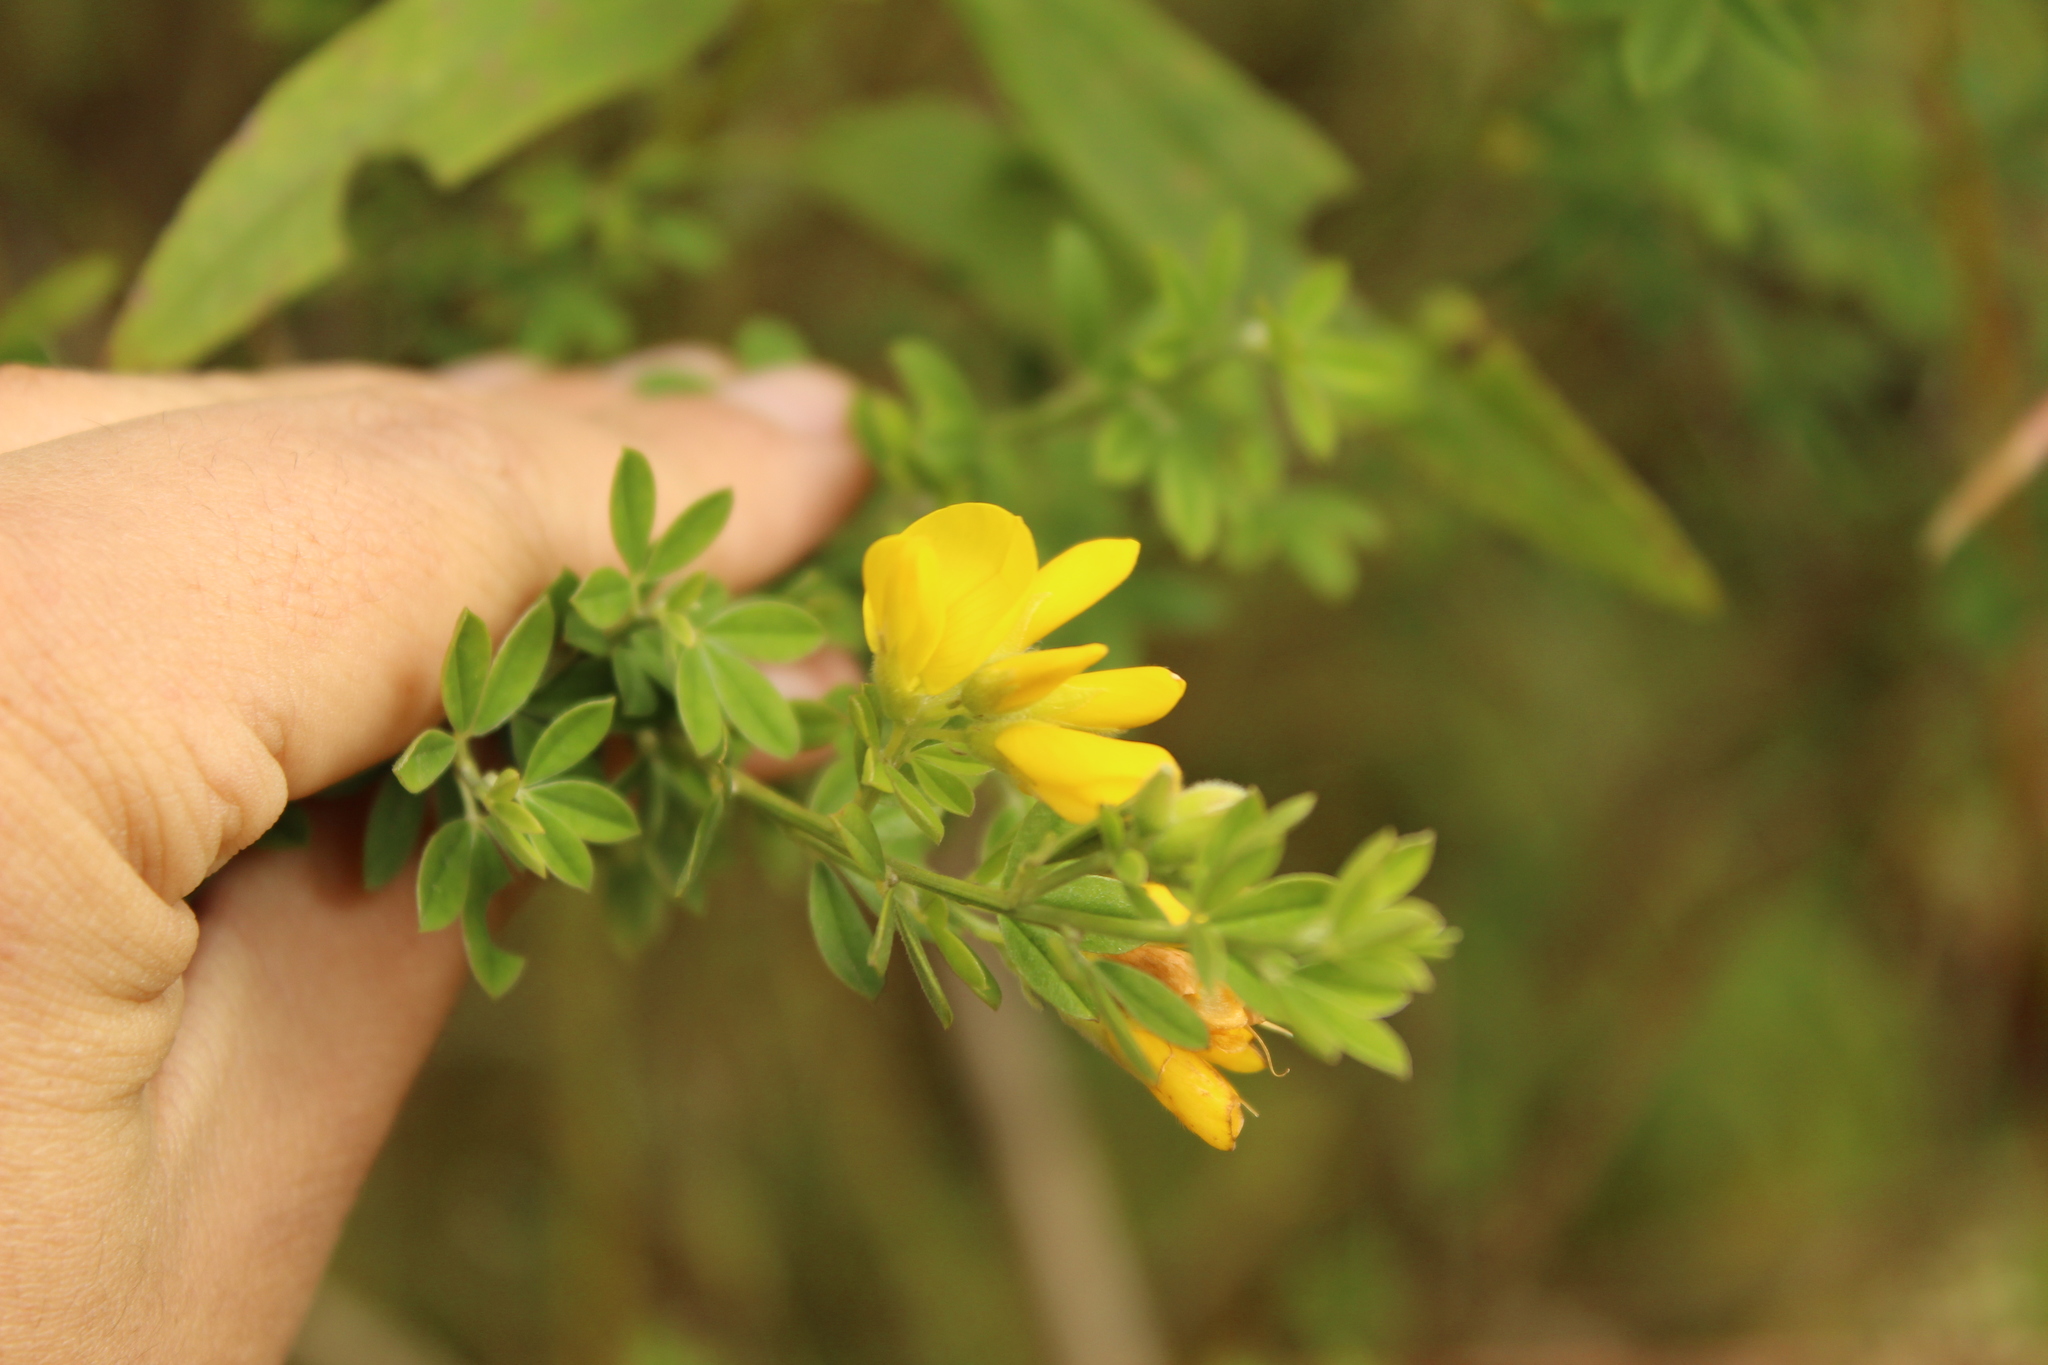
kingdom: Plantae
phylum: Tracheophyta
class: Magnoliopsida
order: Fabales
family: Fabaceae
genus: Genista
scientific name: Genista monspessulana
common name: Montpellier broom
